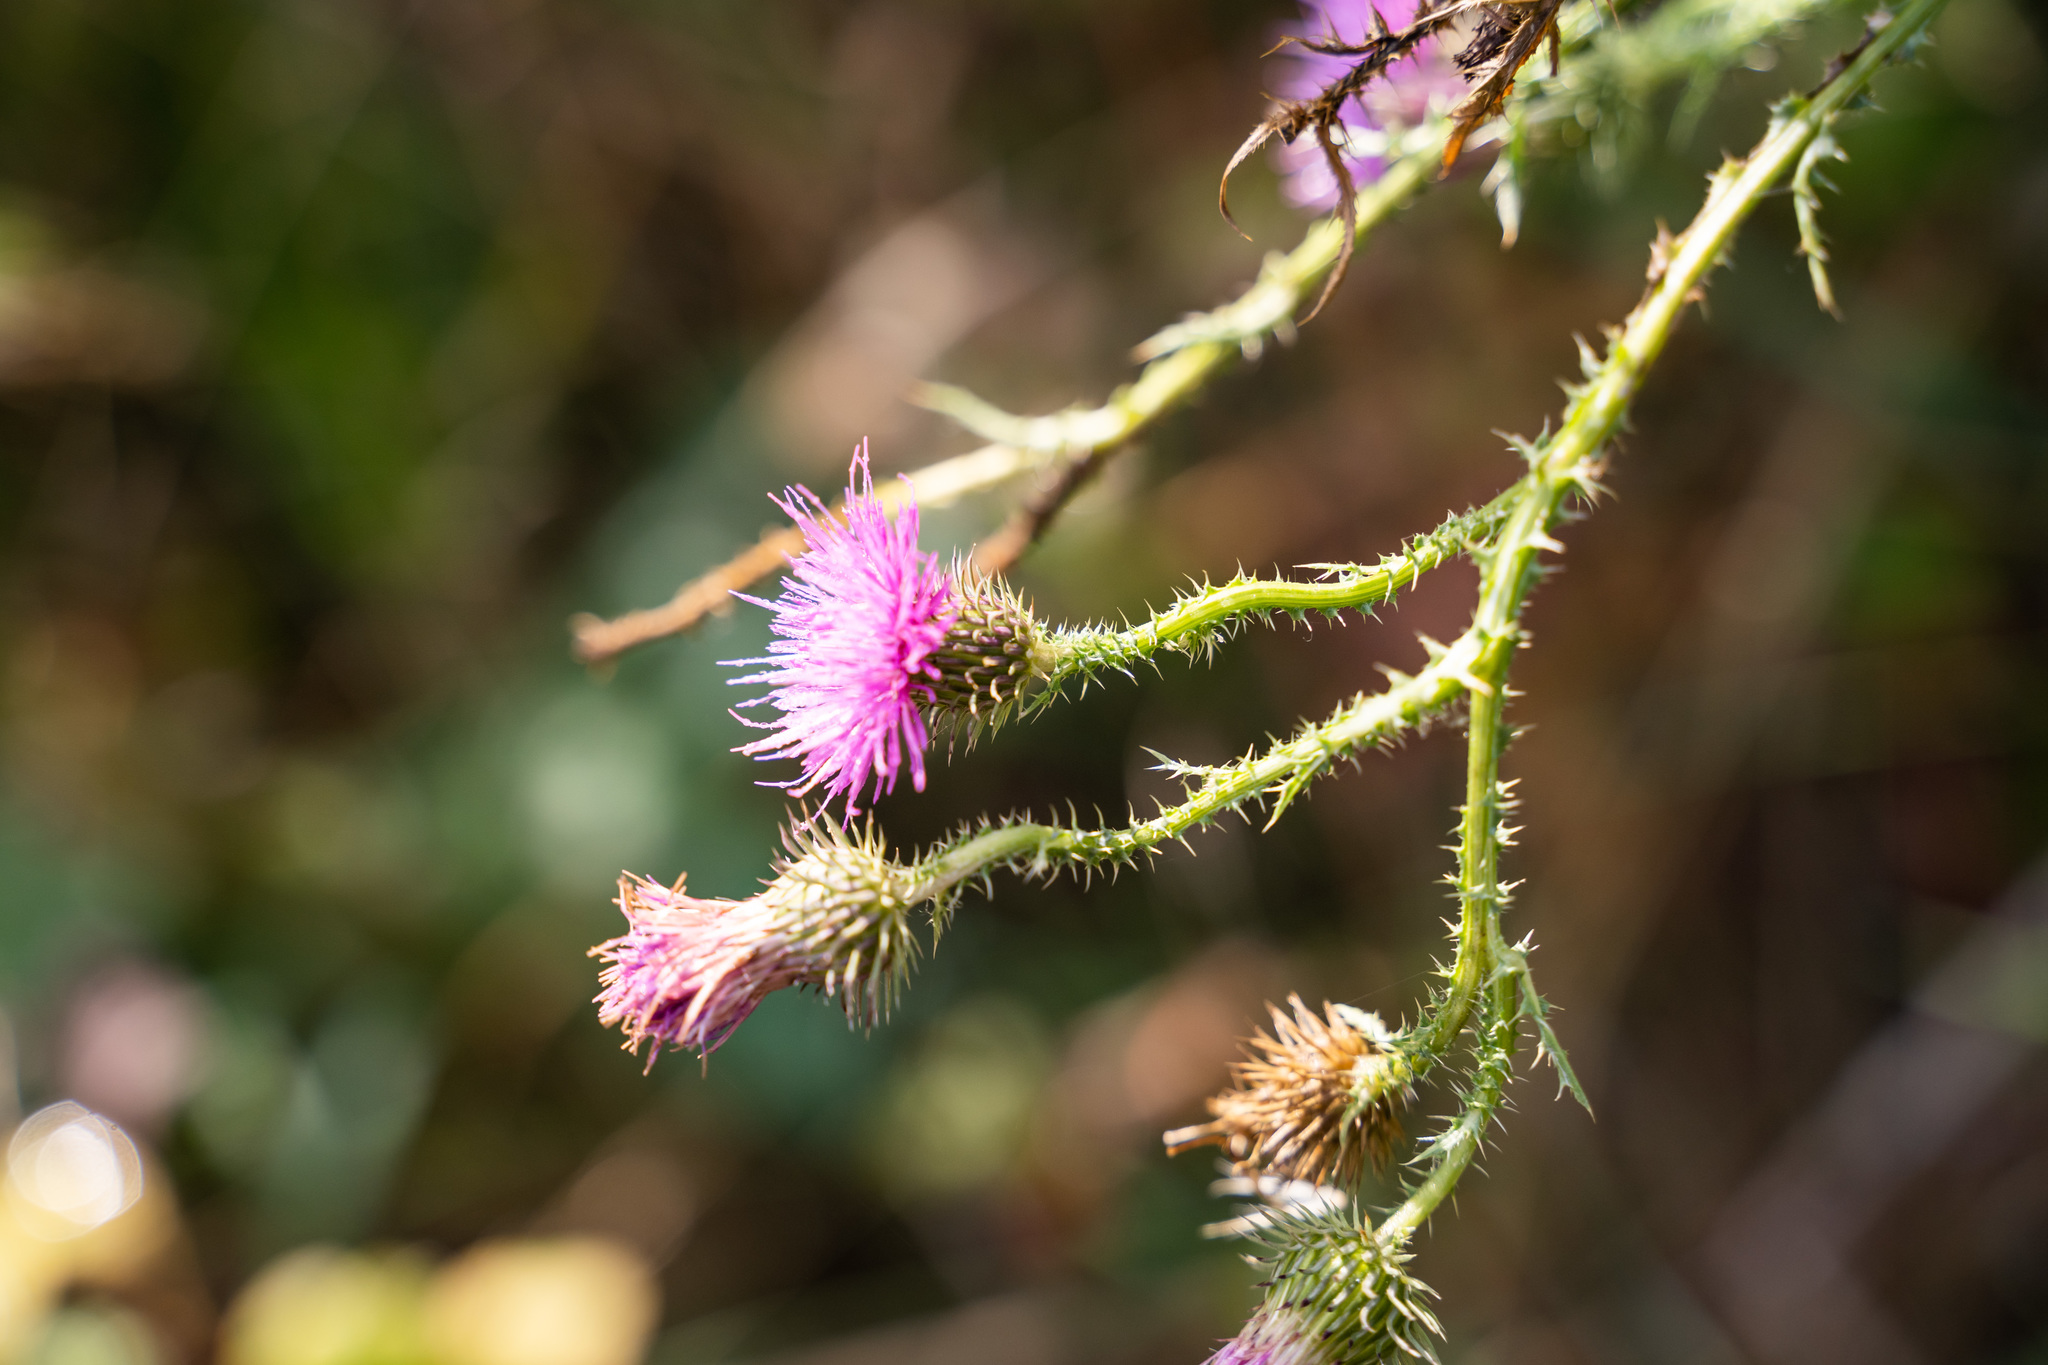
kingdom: Plantae
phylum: Tracheophyta
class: Magnoliopsida
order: Asterales
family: Asteraceae
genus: Carduus
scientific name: Carduus acanthoides
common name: Plumeless thistle
